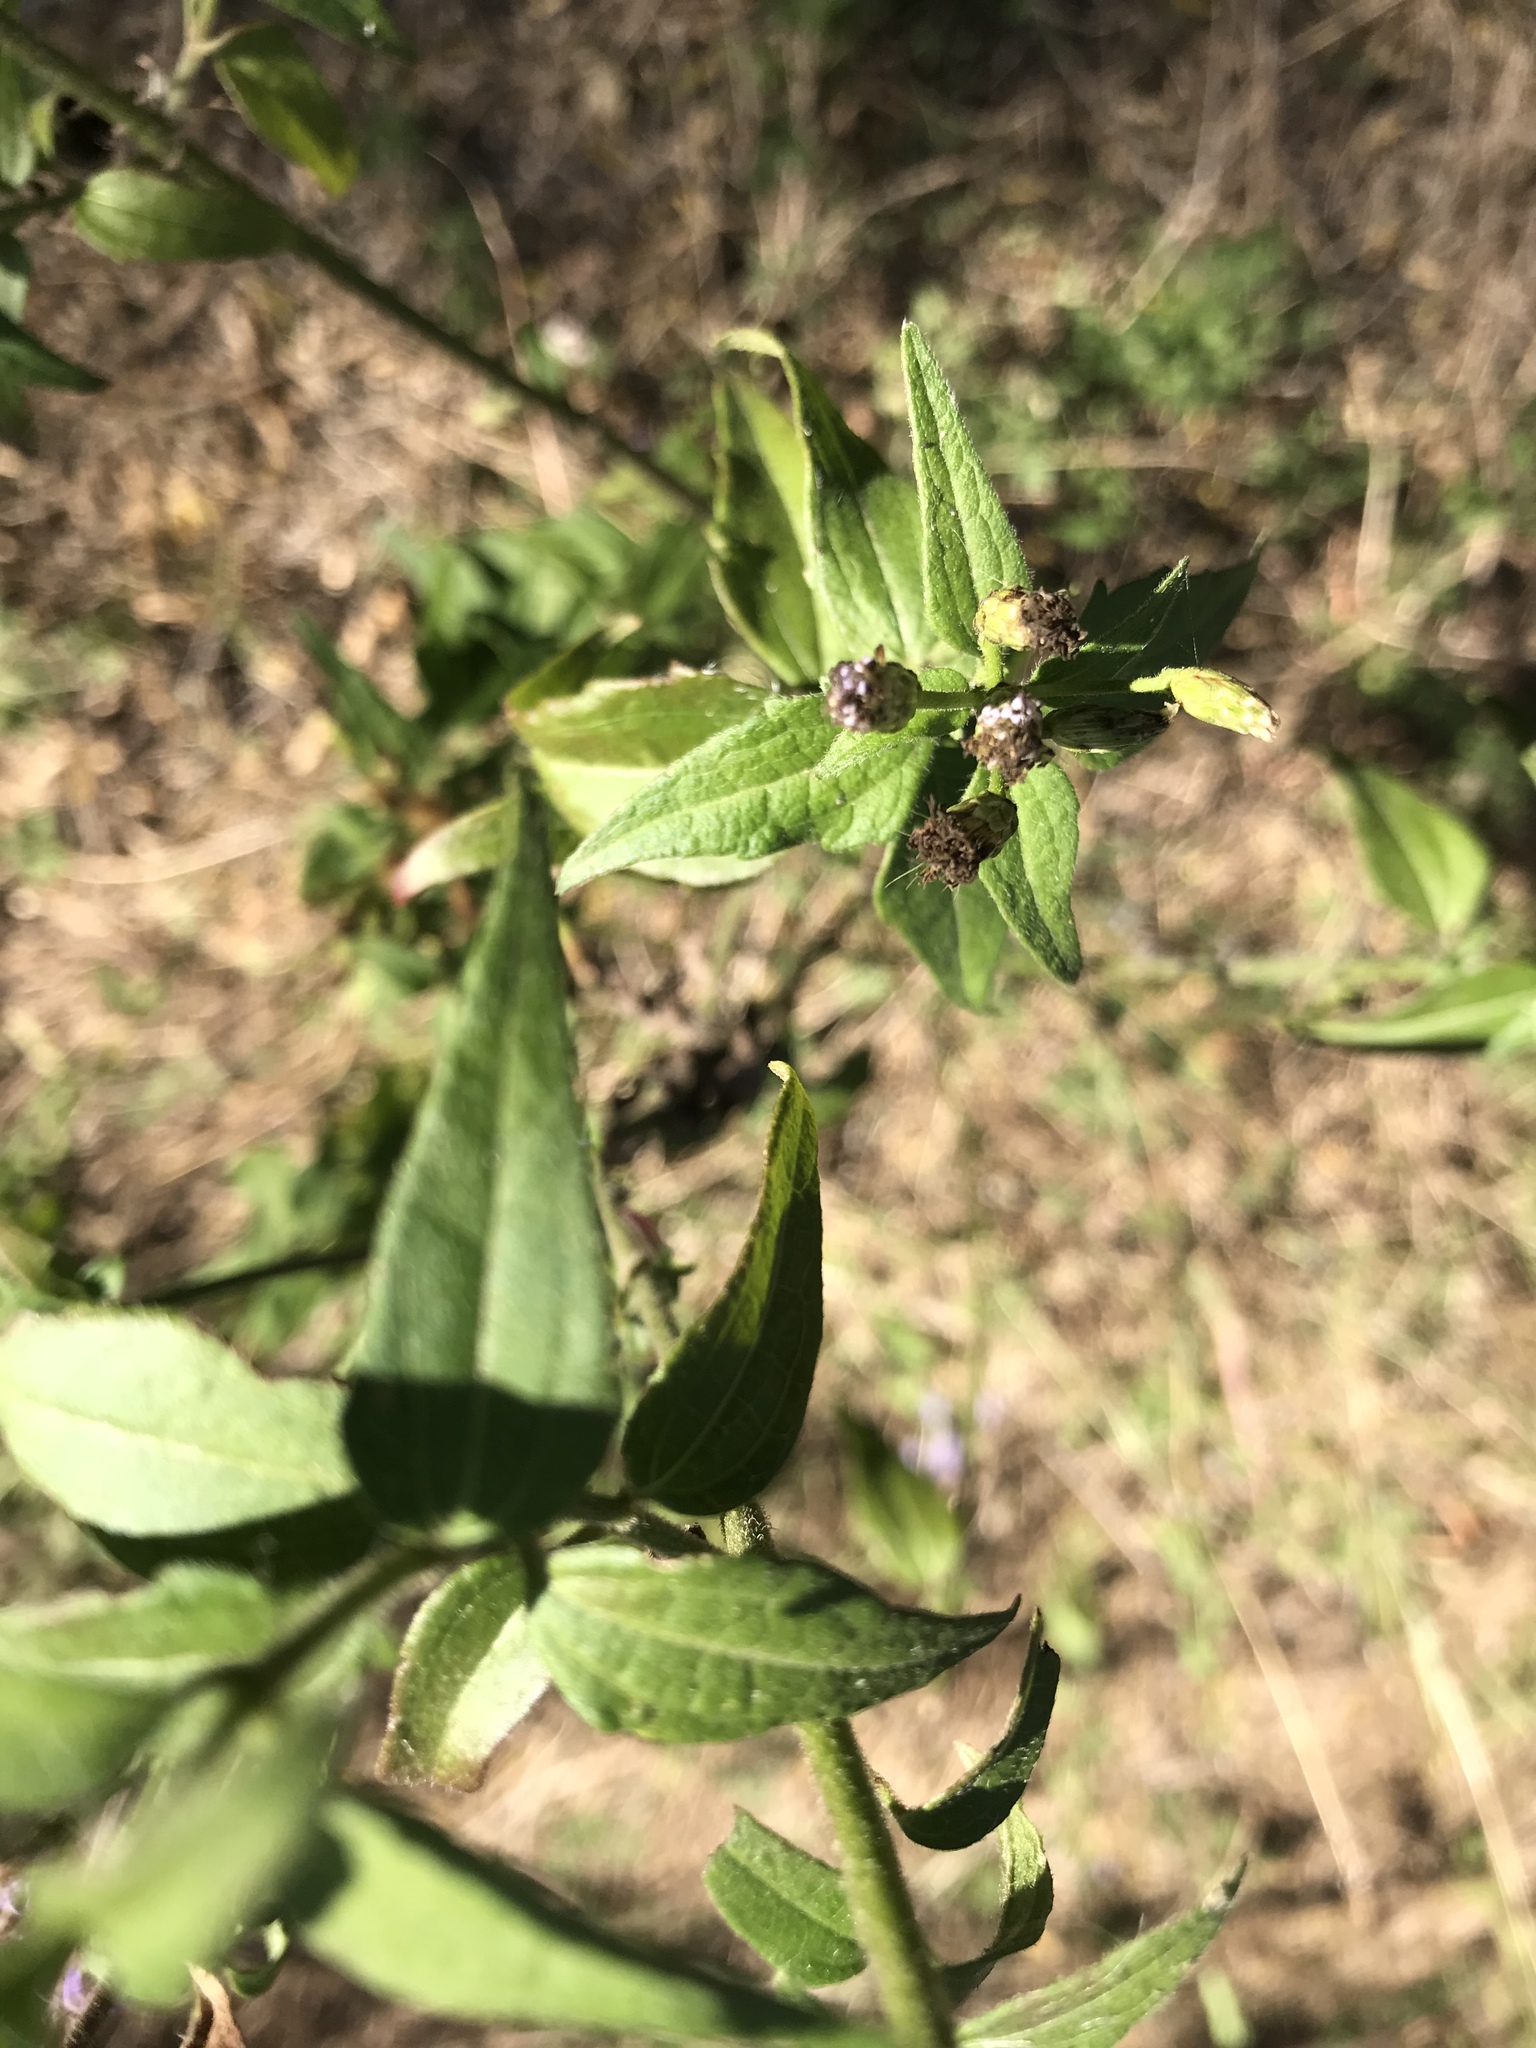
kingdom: Plantae
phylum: Tracheophyta
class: Magnoliopsida
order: Asterales
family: Asteraceae
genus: Chromolaena
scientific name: Chromolaena odorata
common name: Siamweed
